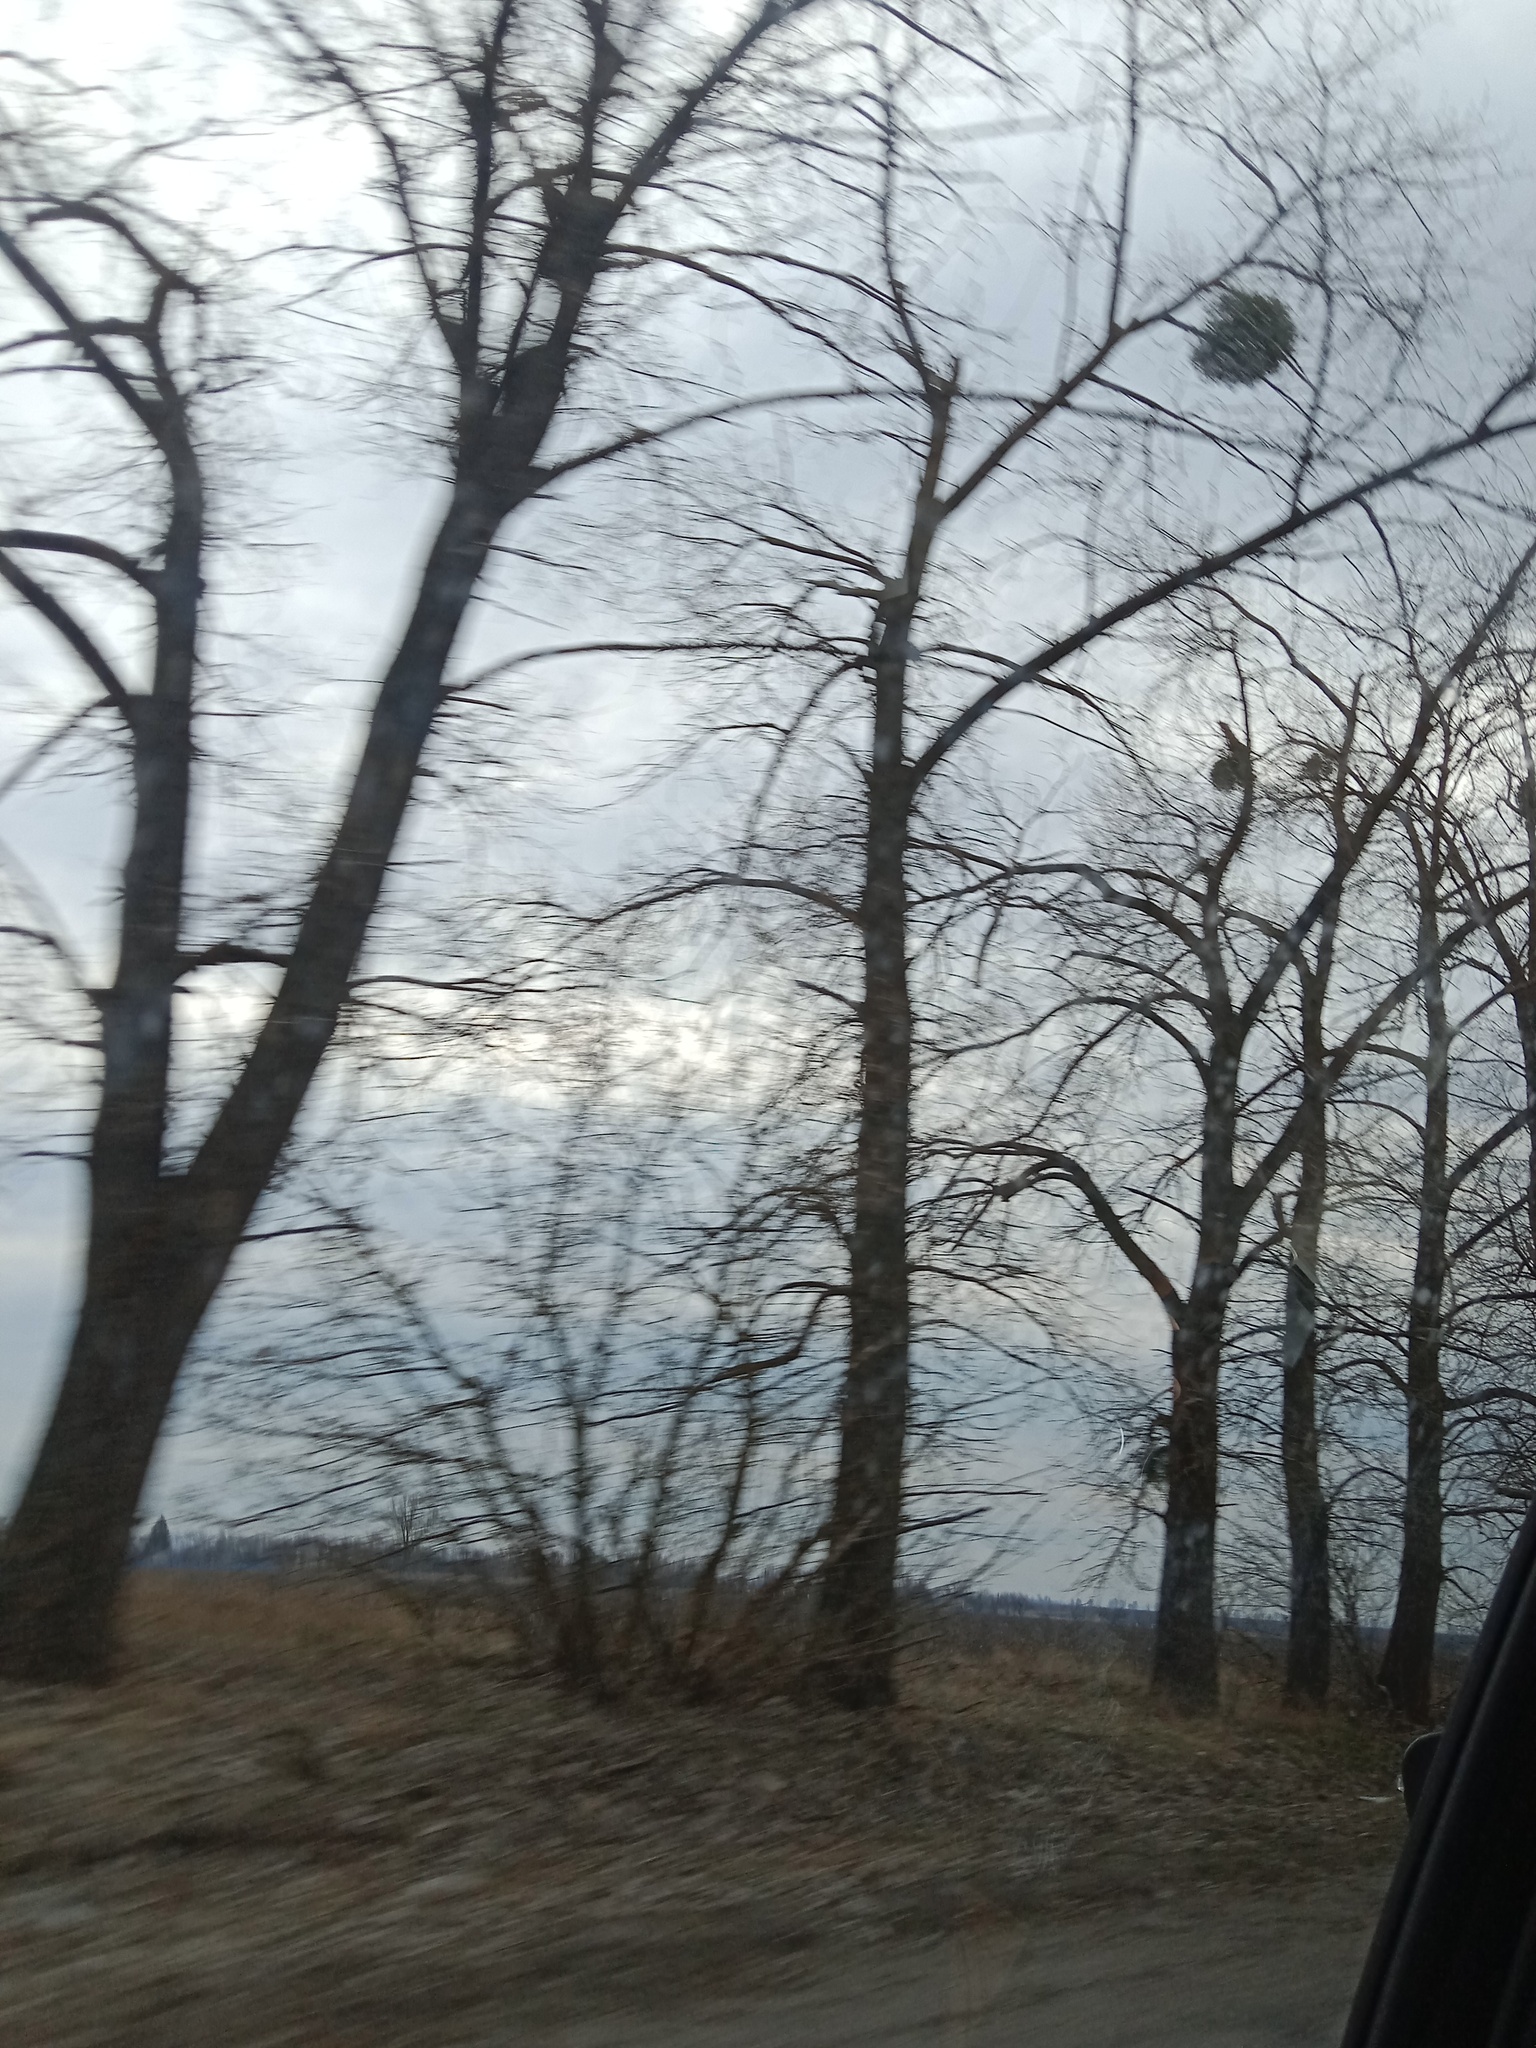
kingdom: Plantae
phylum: Tracheophyta
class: Magnoliopsida
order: Santalales
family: Viscaceae
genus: Viscum
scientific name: Viscum album
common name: Mistletoe
